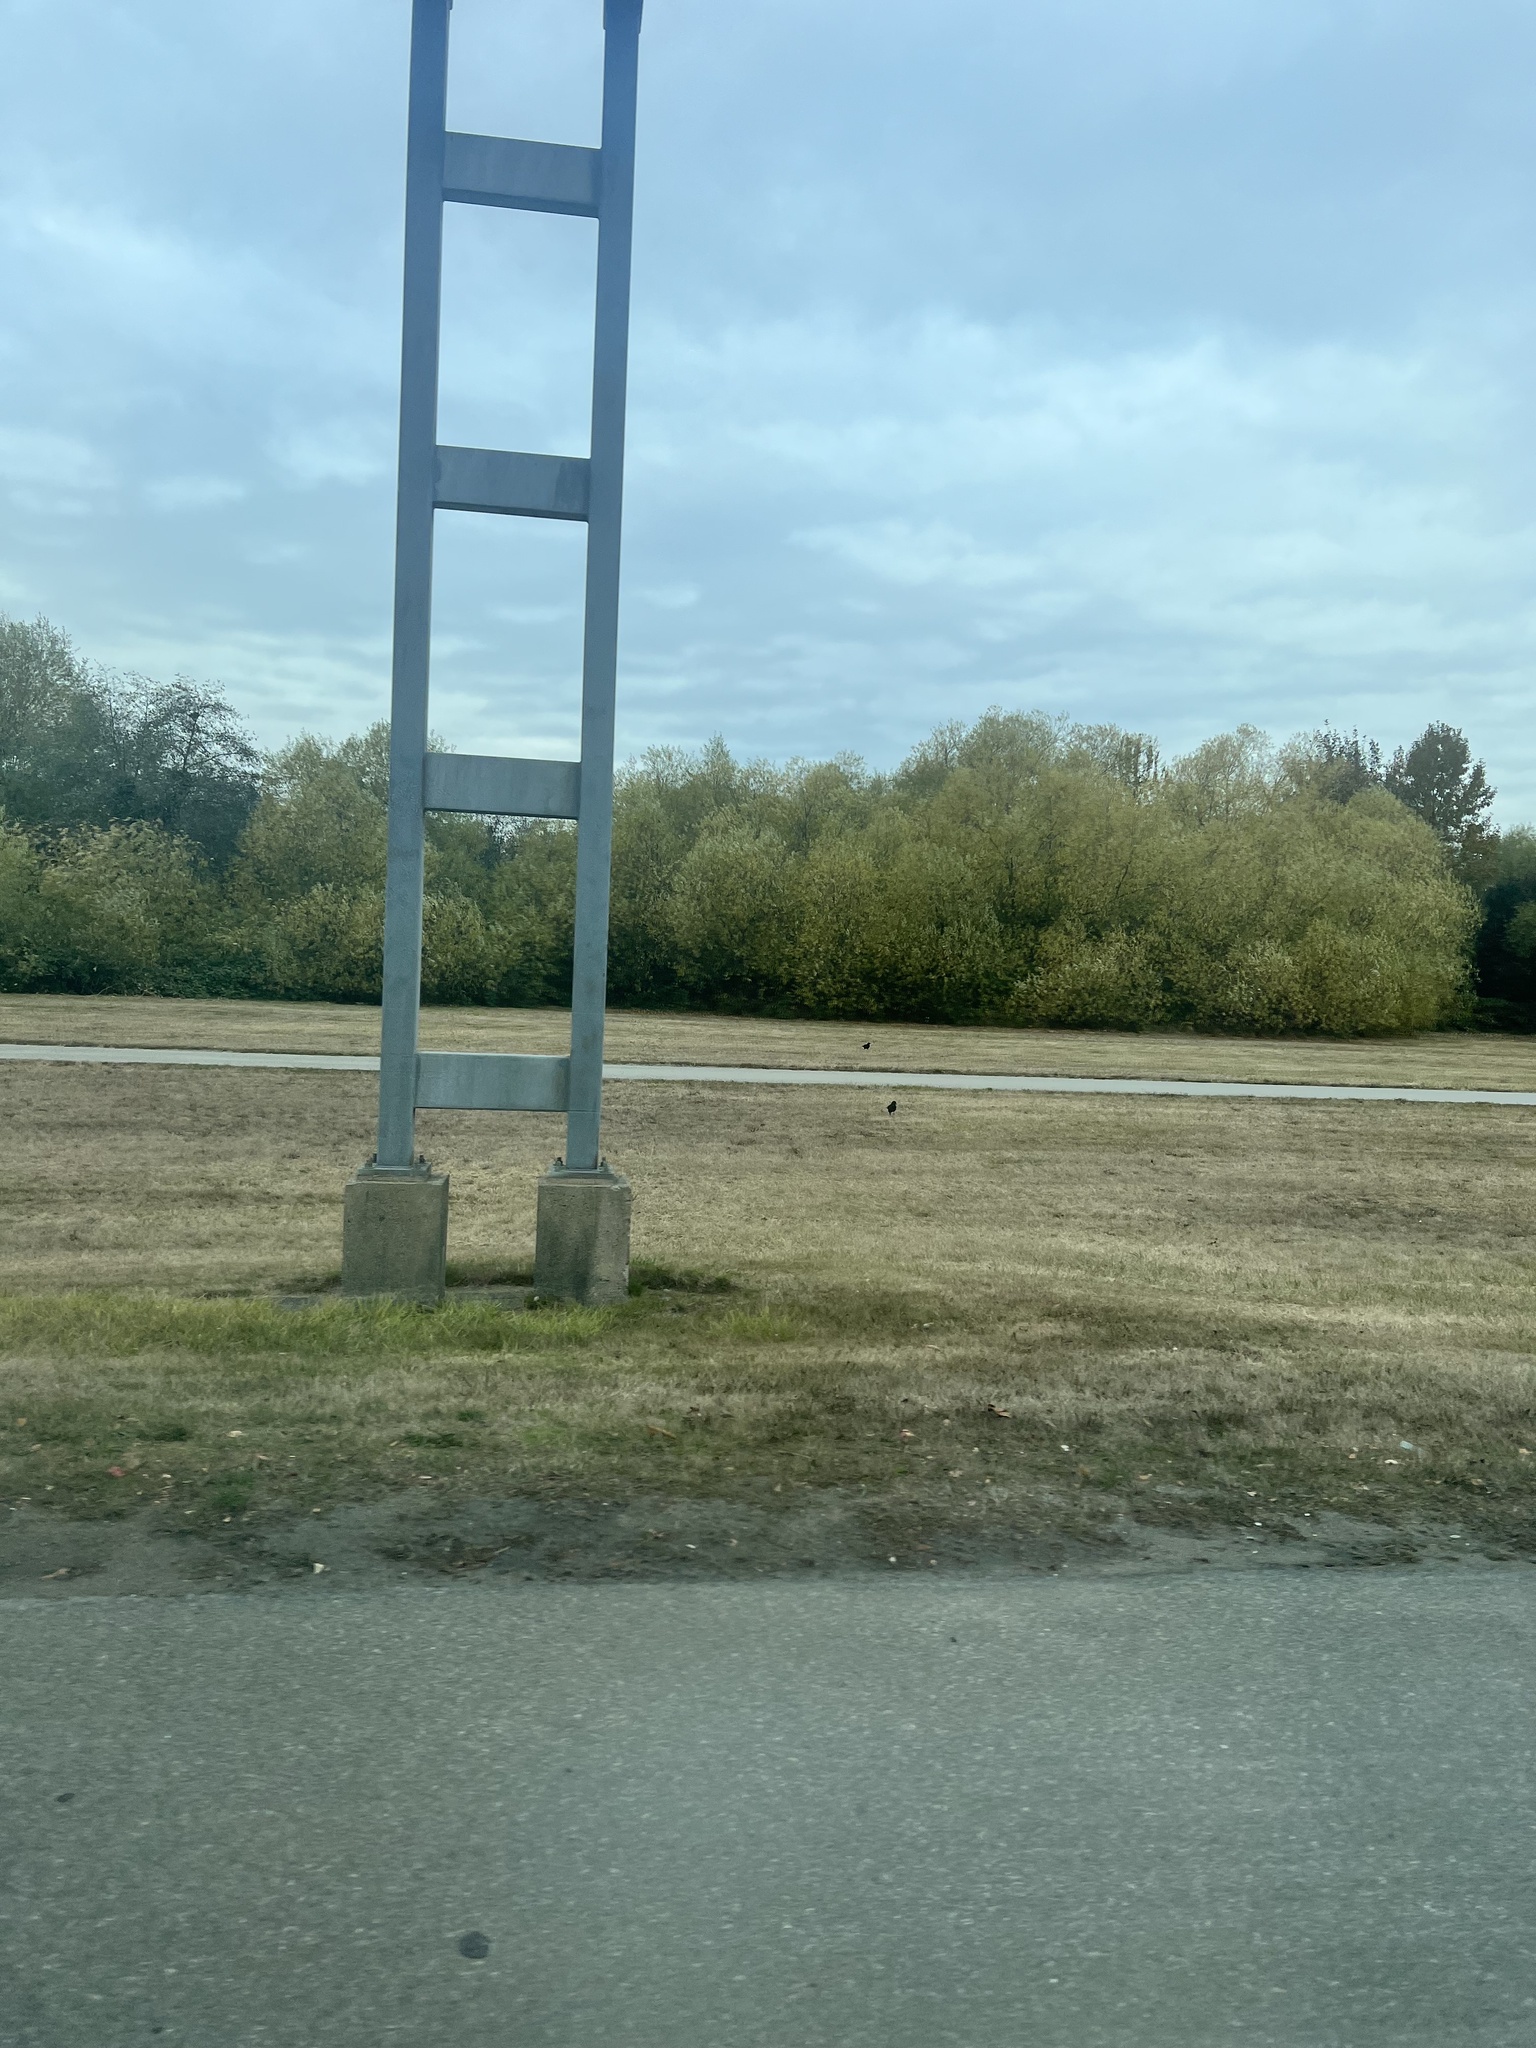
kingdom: Animalia
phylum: Chordata
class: Aves
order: Passeriformes
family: Corvidae
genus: Corvus
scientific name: Corvus brachyrhynchos
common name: American crow
